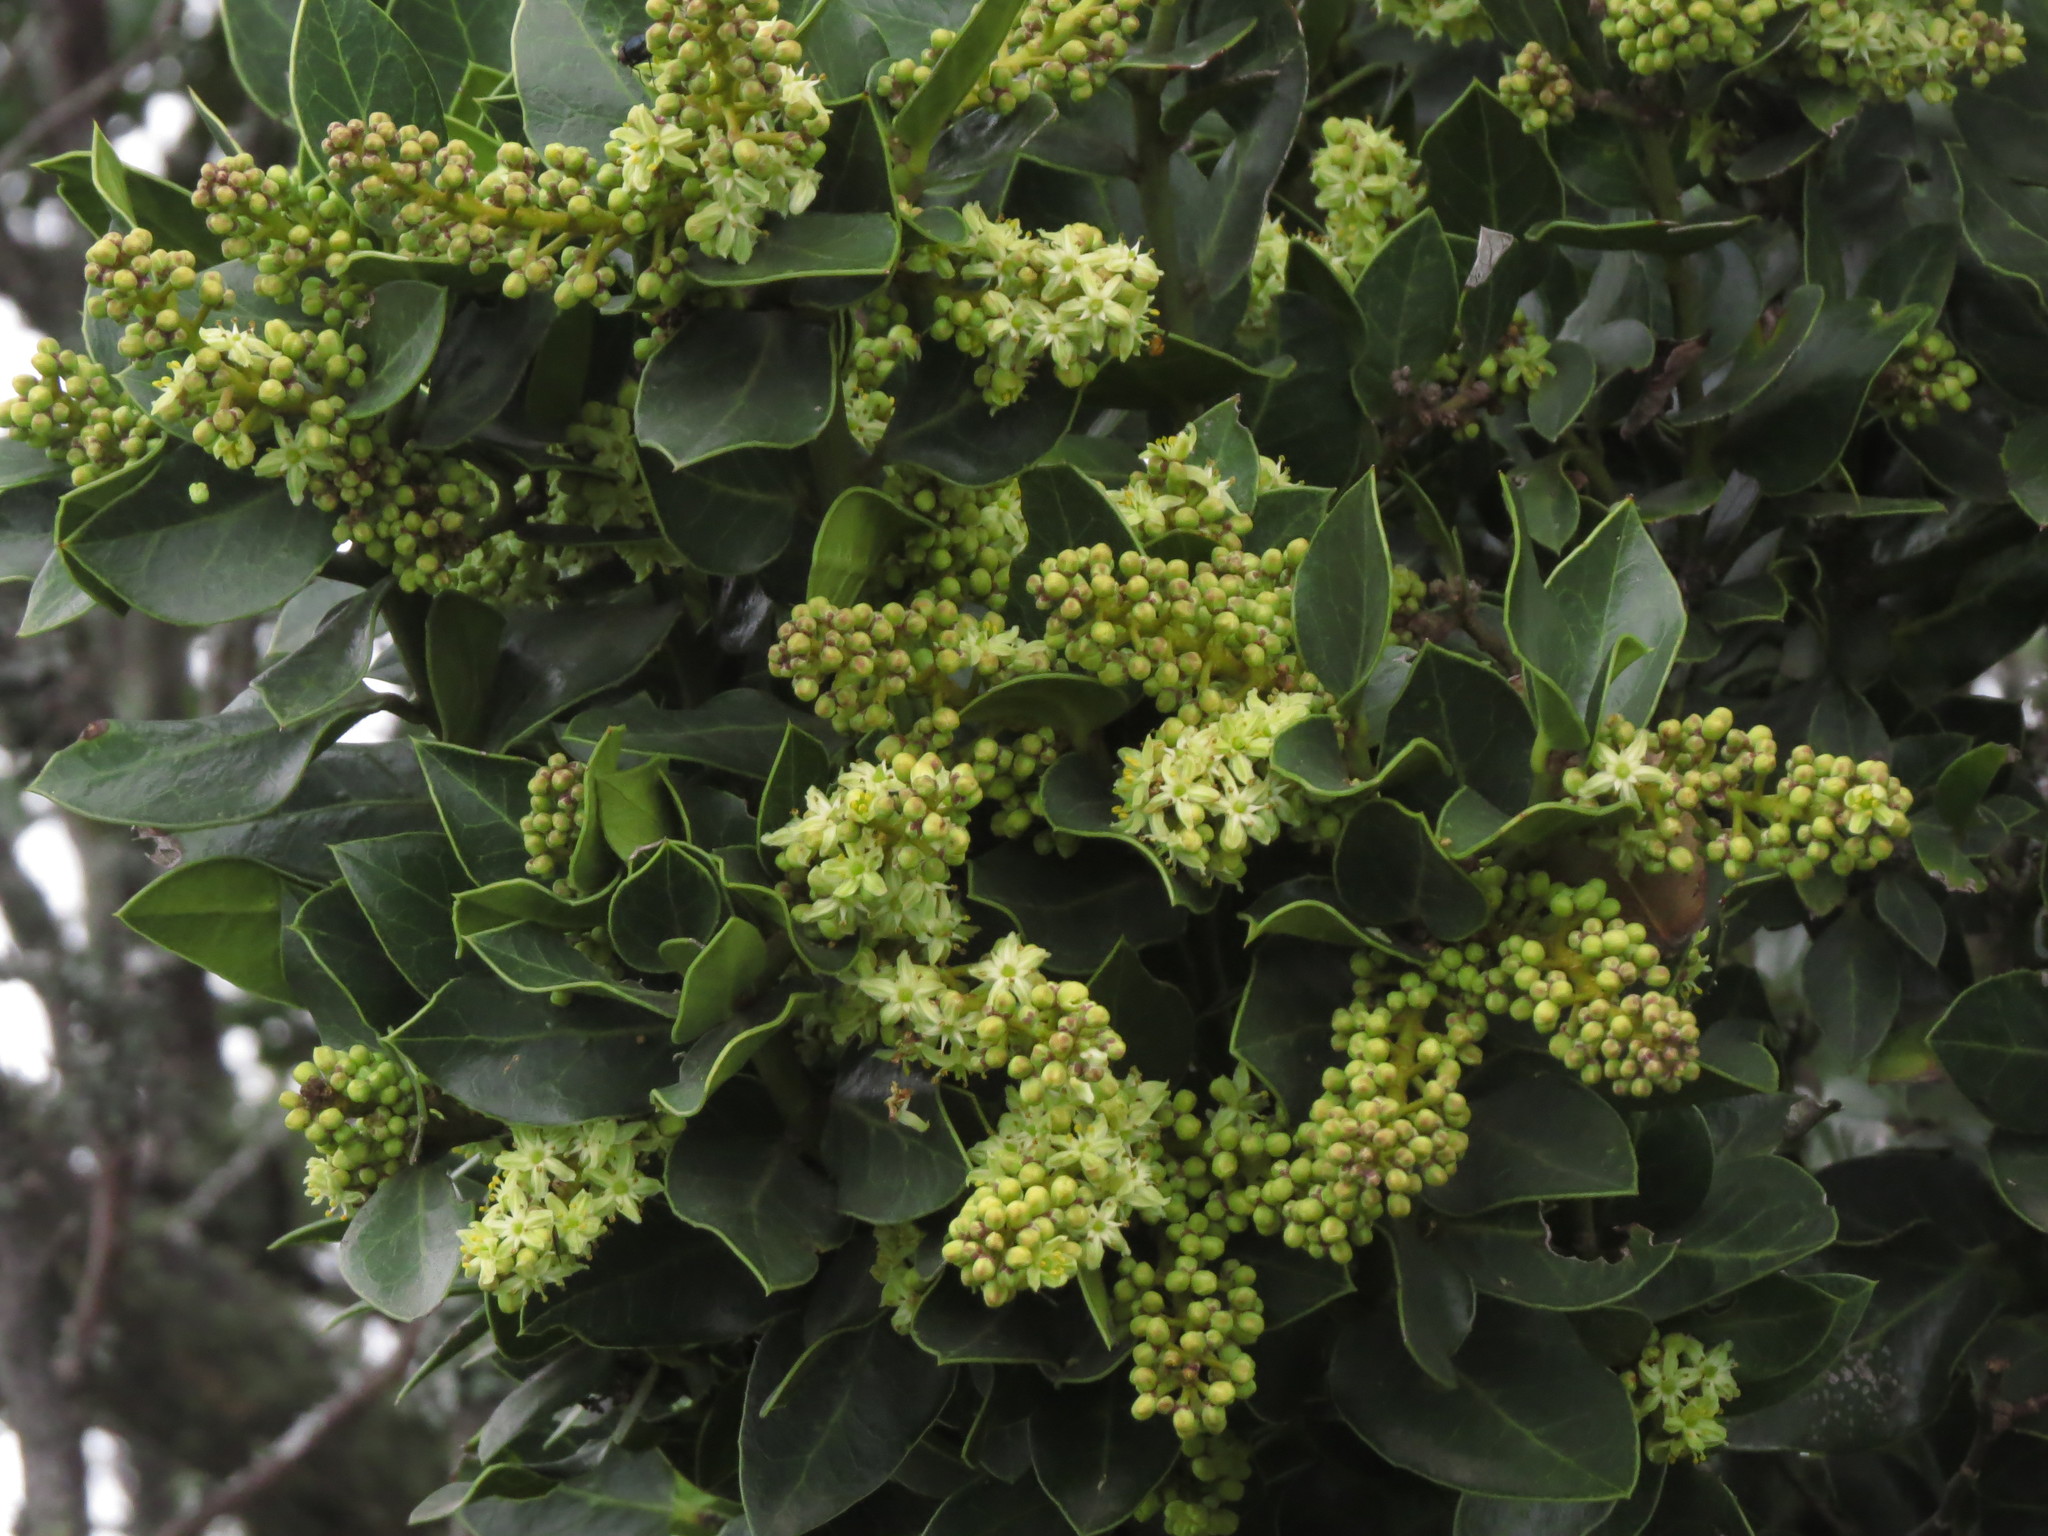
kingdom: Plantae
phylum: Tracheophyta
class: Magnoliopsida
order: Cardiopteridales
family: Cardiopteridaceae
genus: Citronella
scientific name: Citronella mucronata
